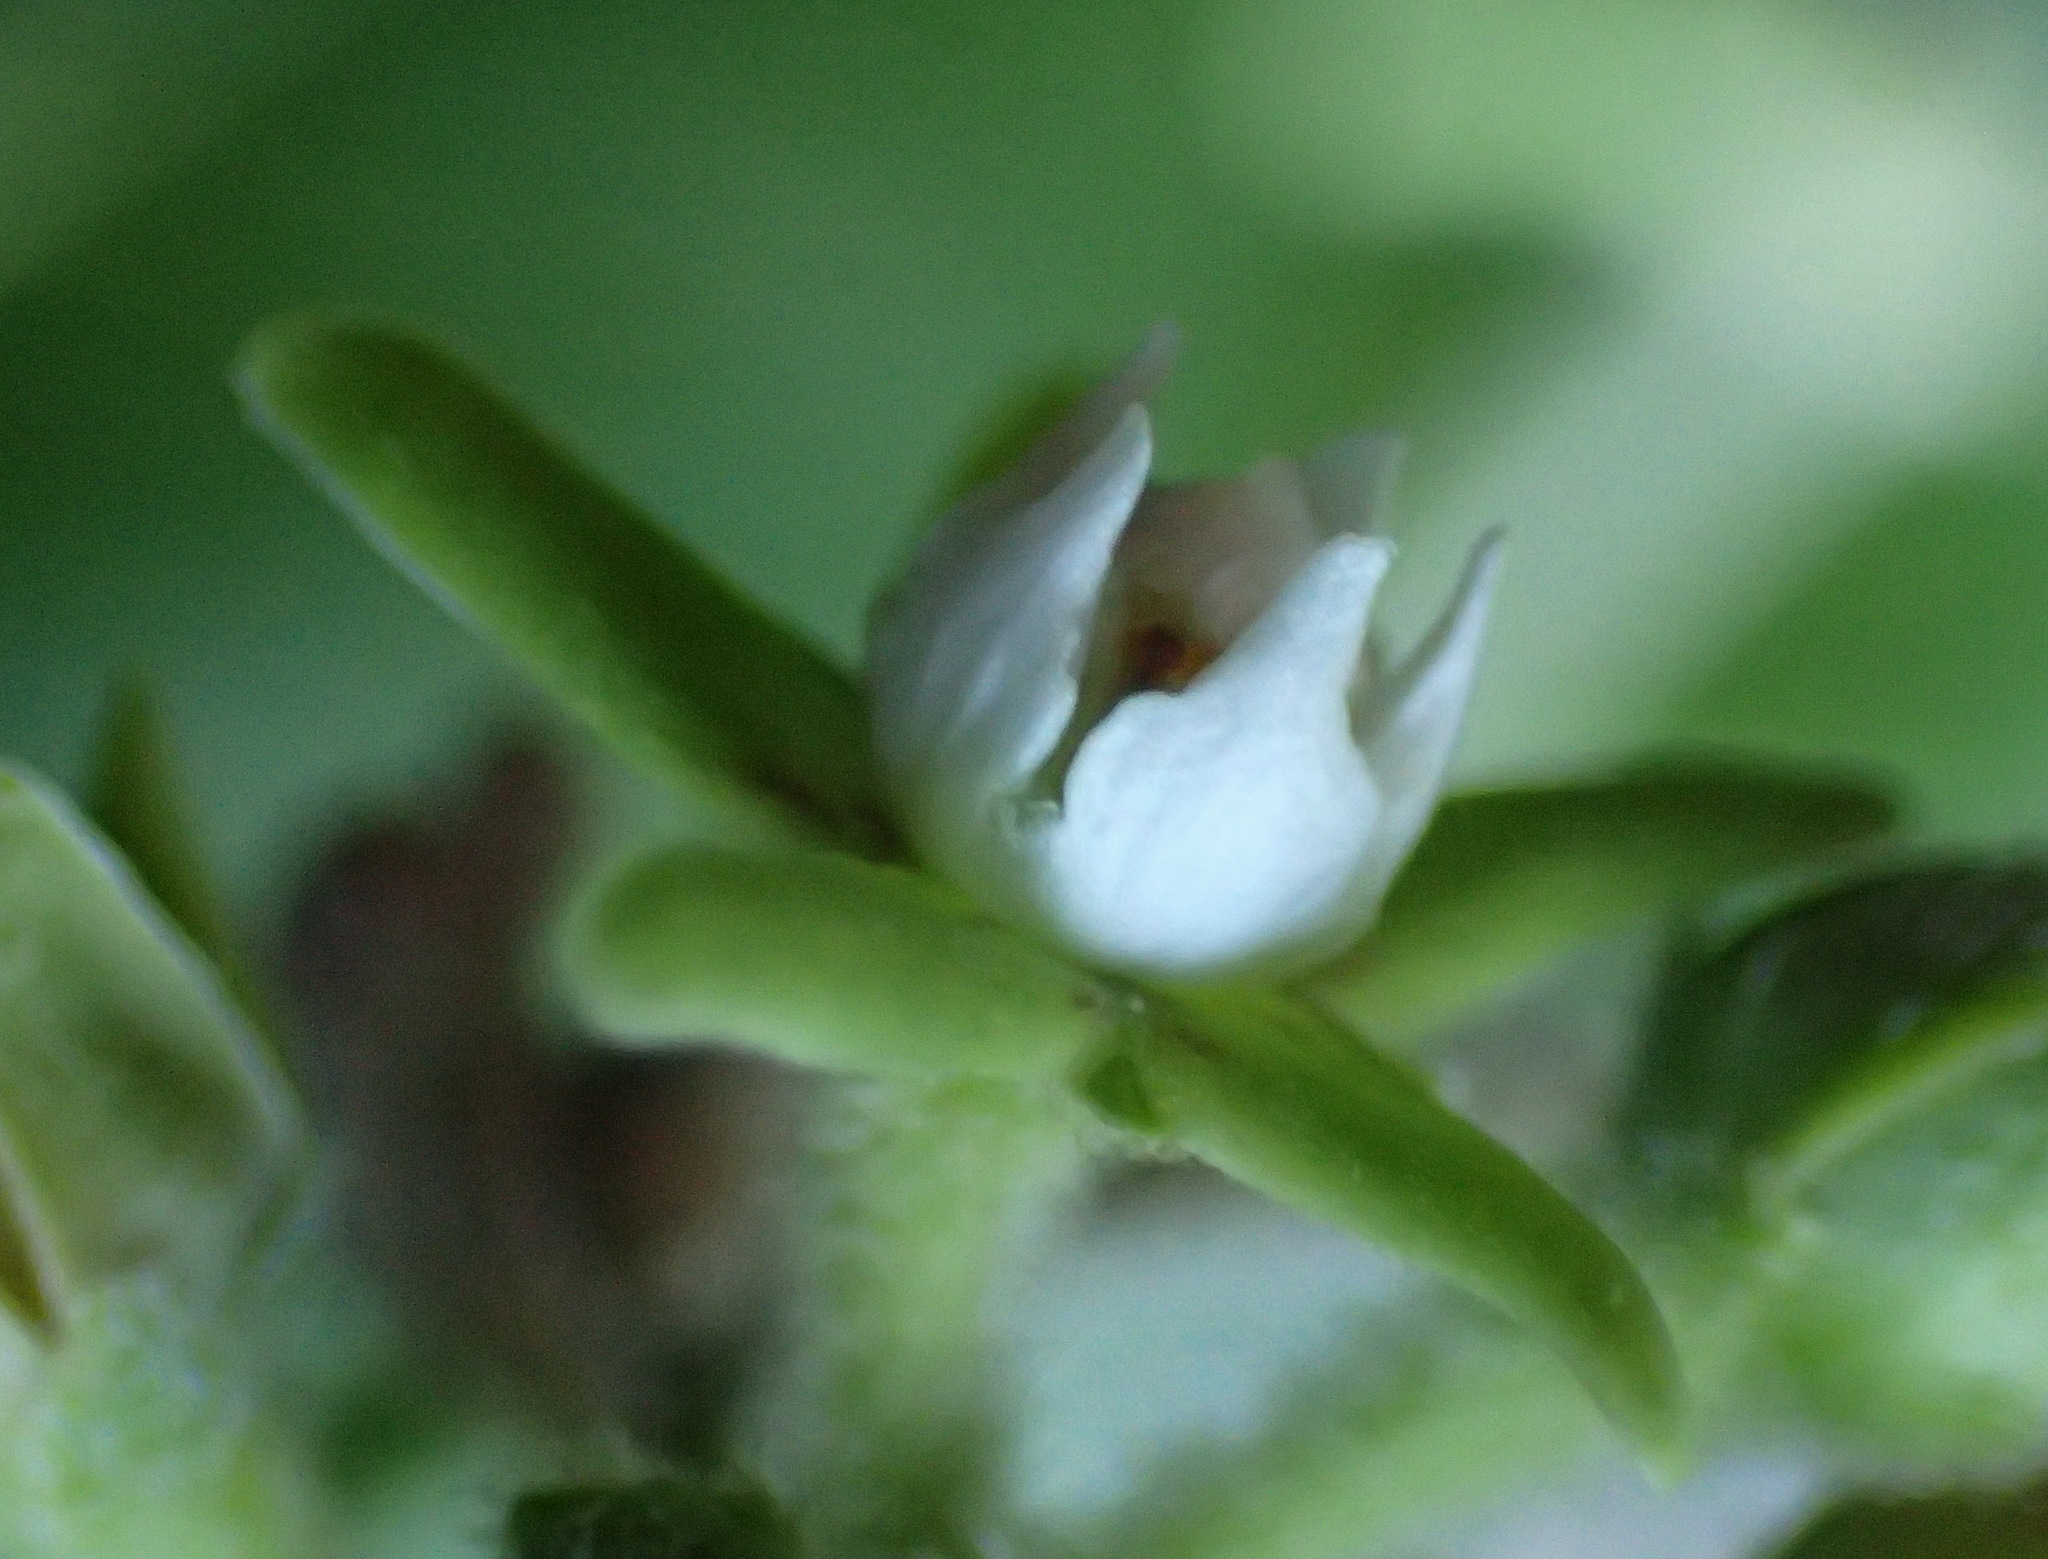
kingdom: Plantae
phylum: Tracheophyta
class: Magnoliopsida
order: Gentianales
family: Apocynaceae
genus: Cynanchum
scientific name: Cynanchum obtusifolium
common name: Monkey-rope
